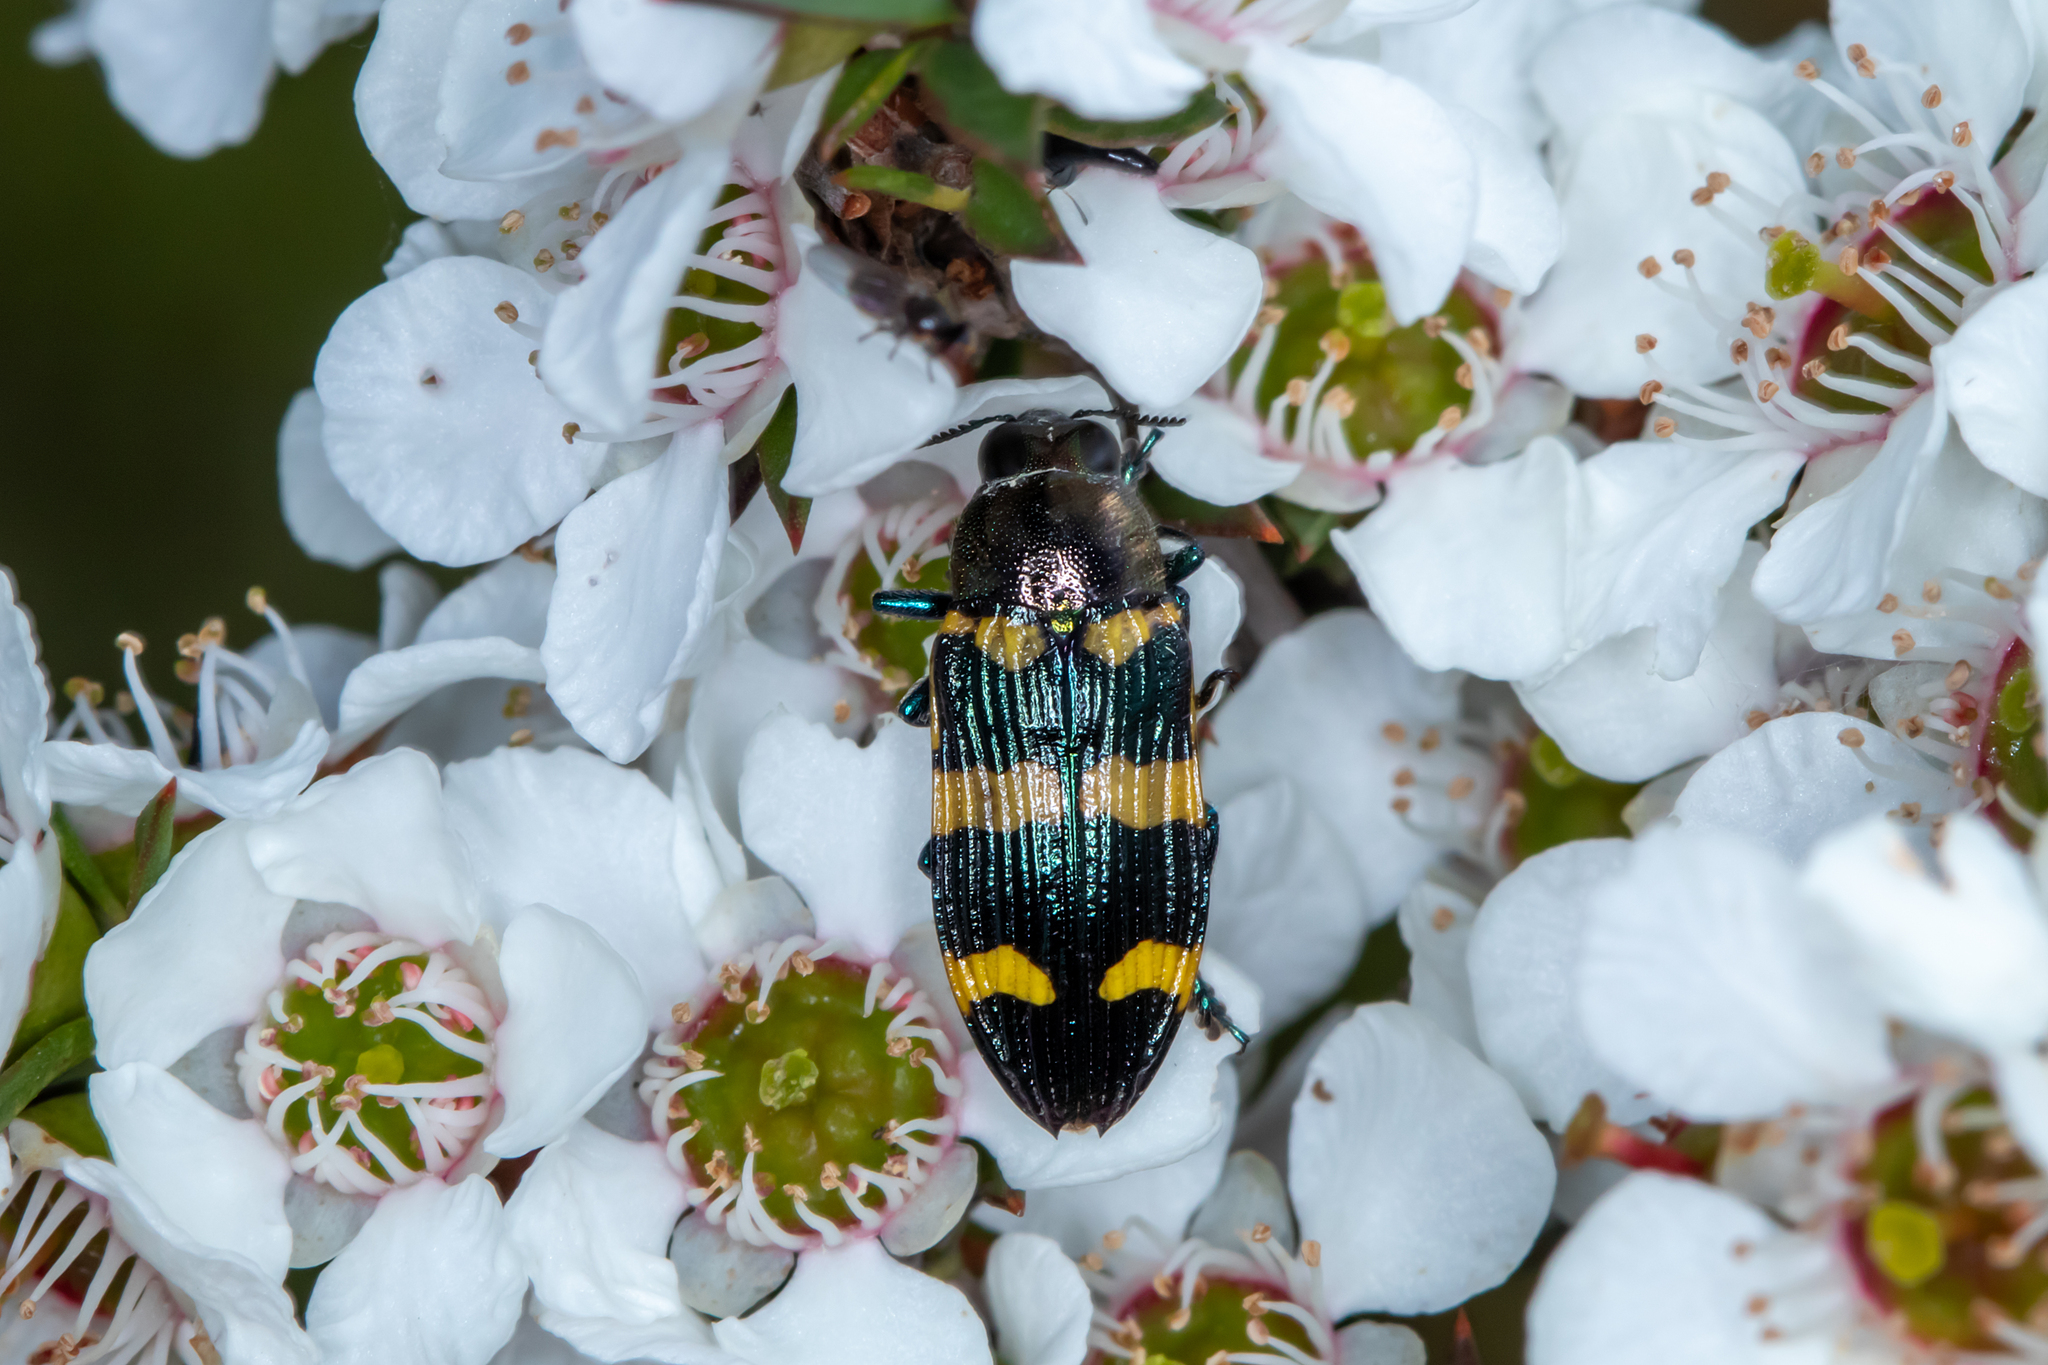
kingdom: Animalia
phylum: Arthropoda
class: Insecta
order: Coleoptera
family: Buprestidae
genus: Castiarina
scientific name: Castiarina rectifasciata
